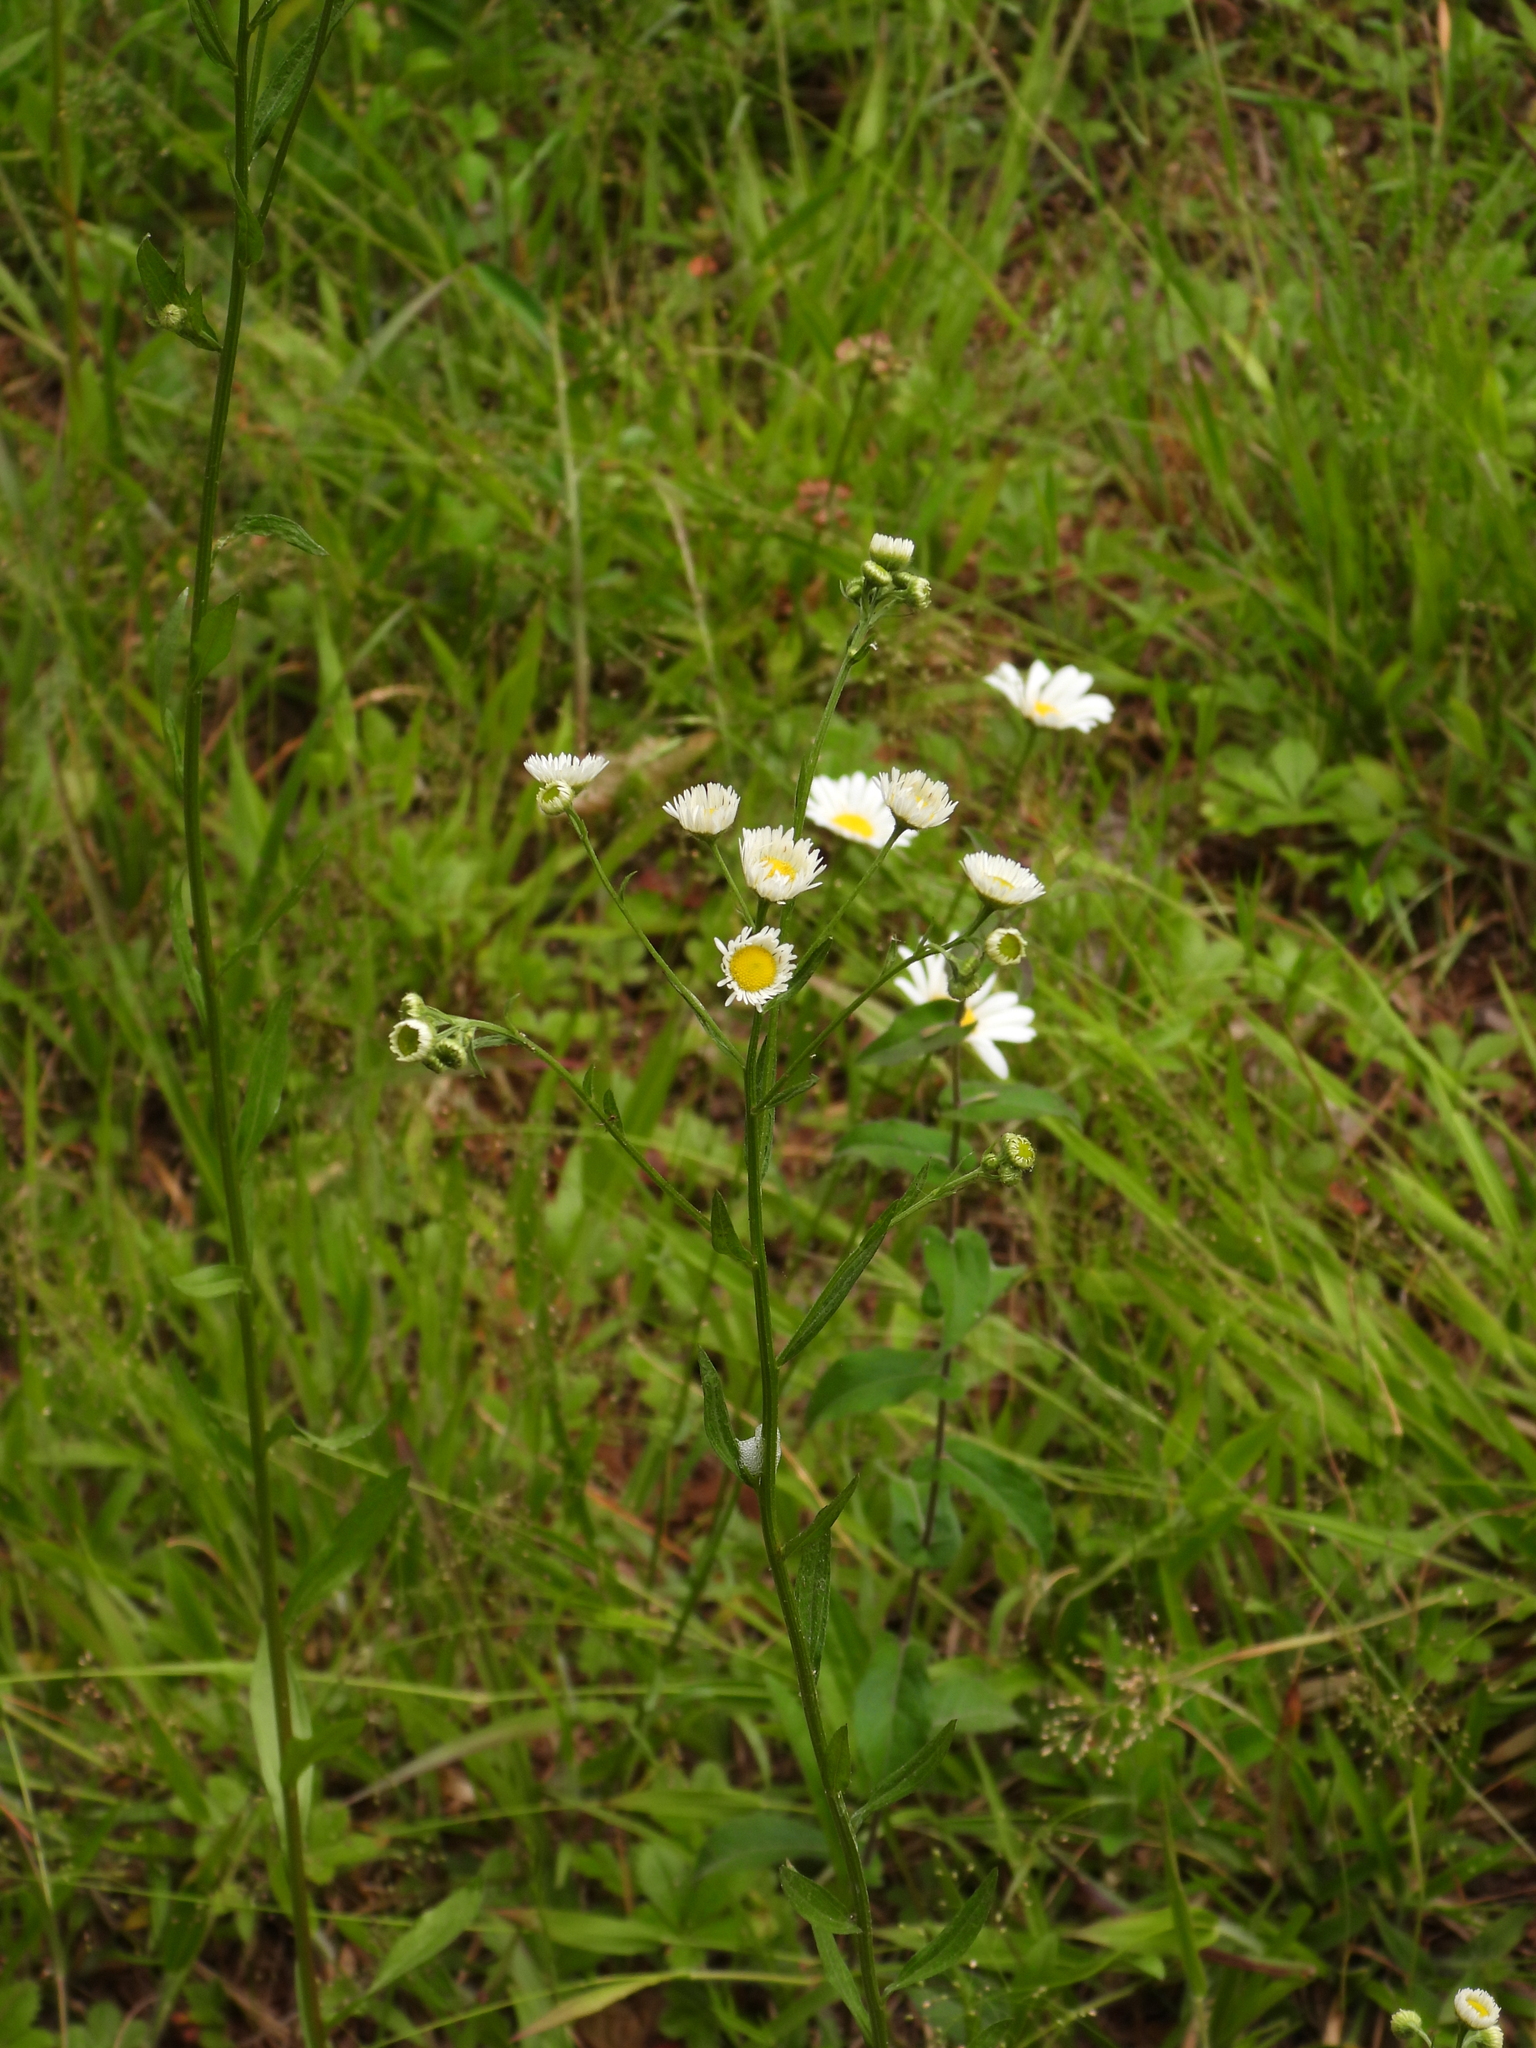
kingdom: Plantae
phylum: Tracheophyta
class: Magnoliopsida
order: Asterales
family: Asteraceae
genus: Erigeron
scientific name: Erigeron strigosus
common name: Common eastern fleabane
